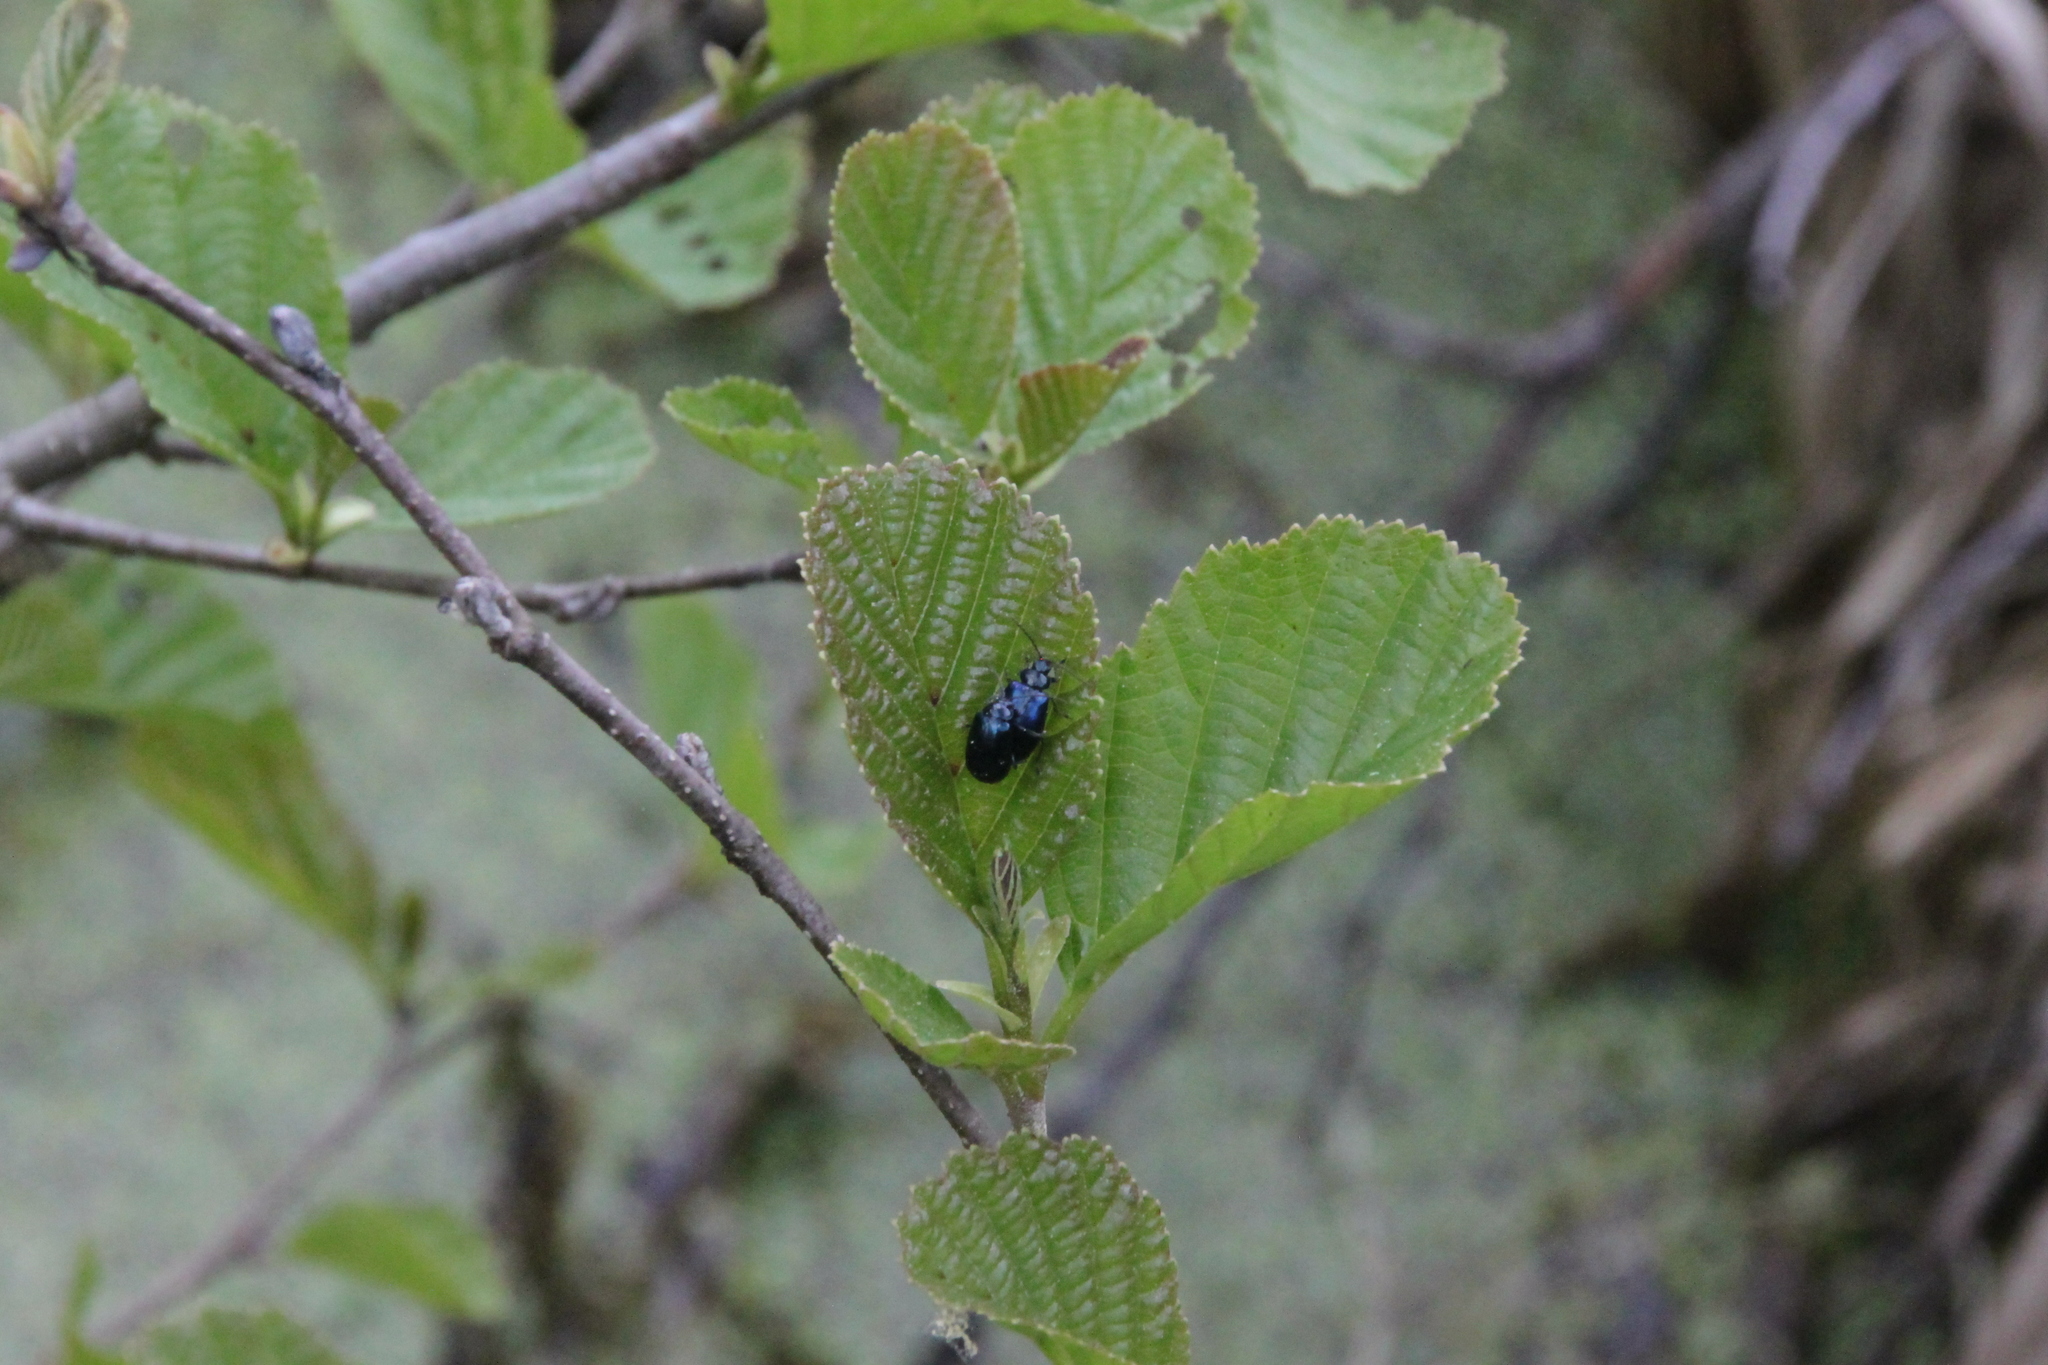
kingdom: Animalia
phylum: Arthropoda
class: Insecta
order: Coleoptera
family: Chrysomelidae
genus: Agelastica
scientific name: Agelastica alni
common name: Alder leaf beetle
